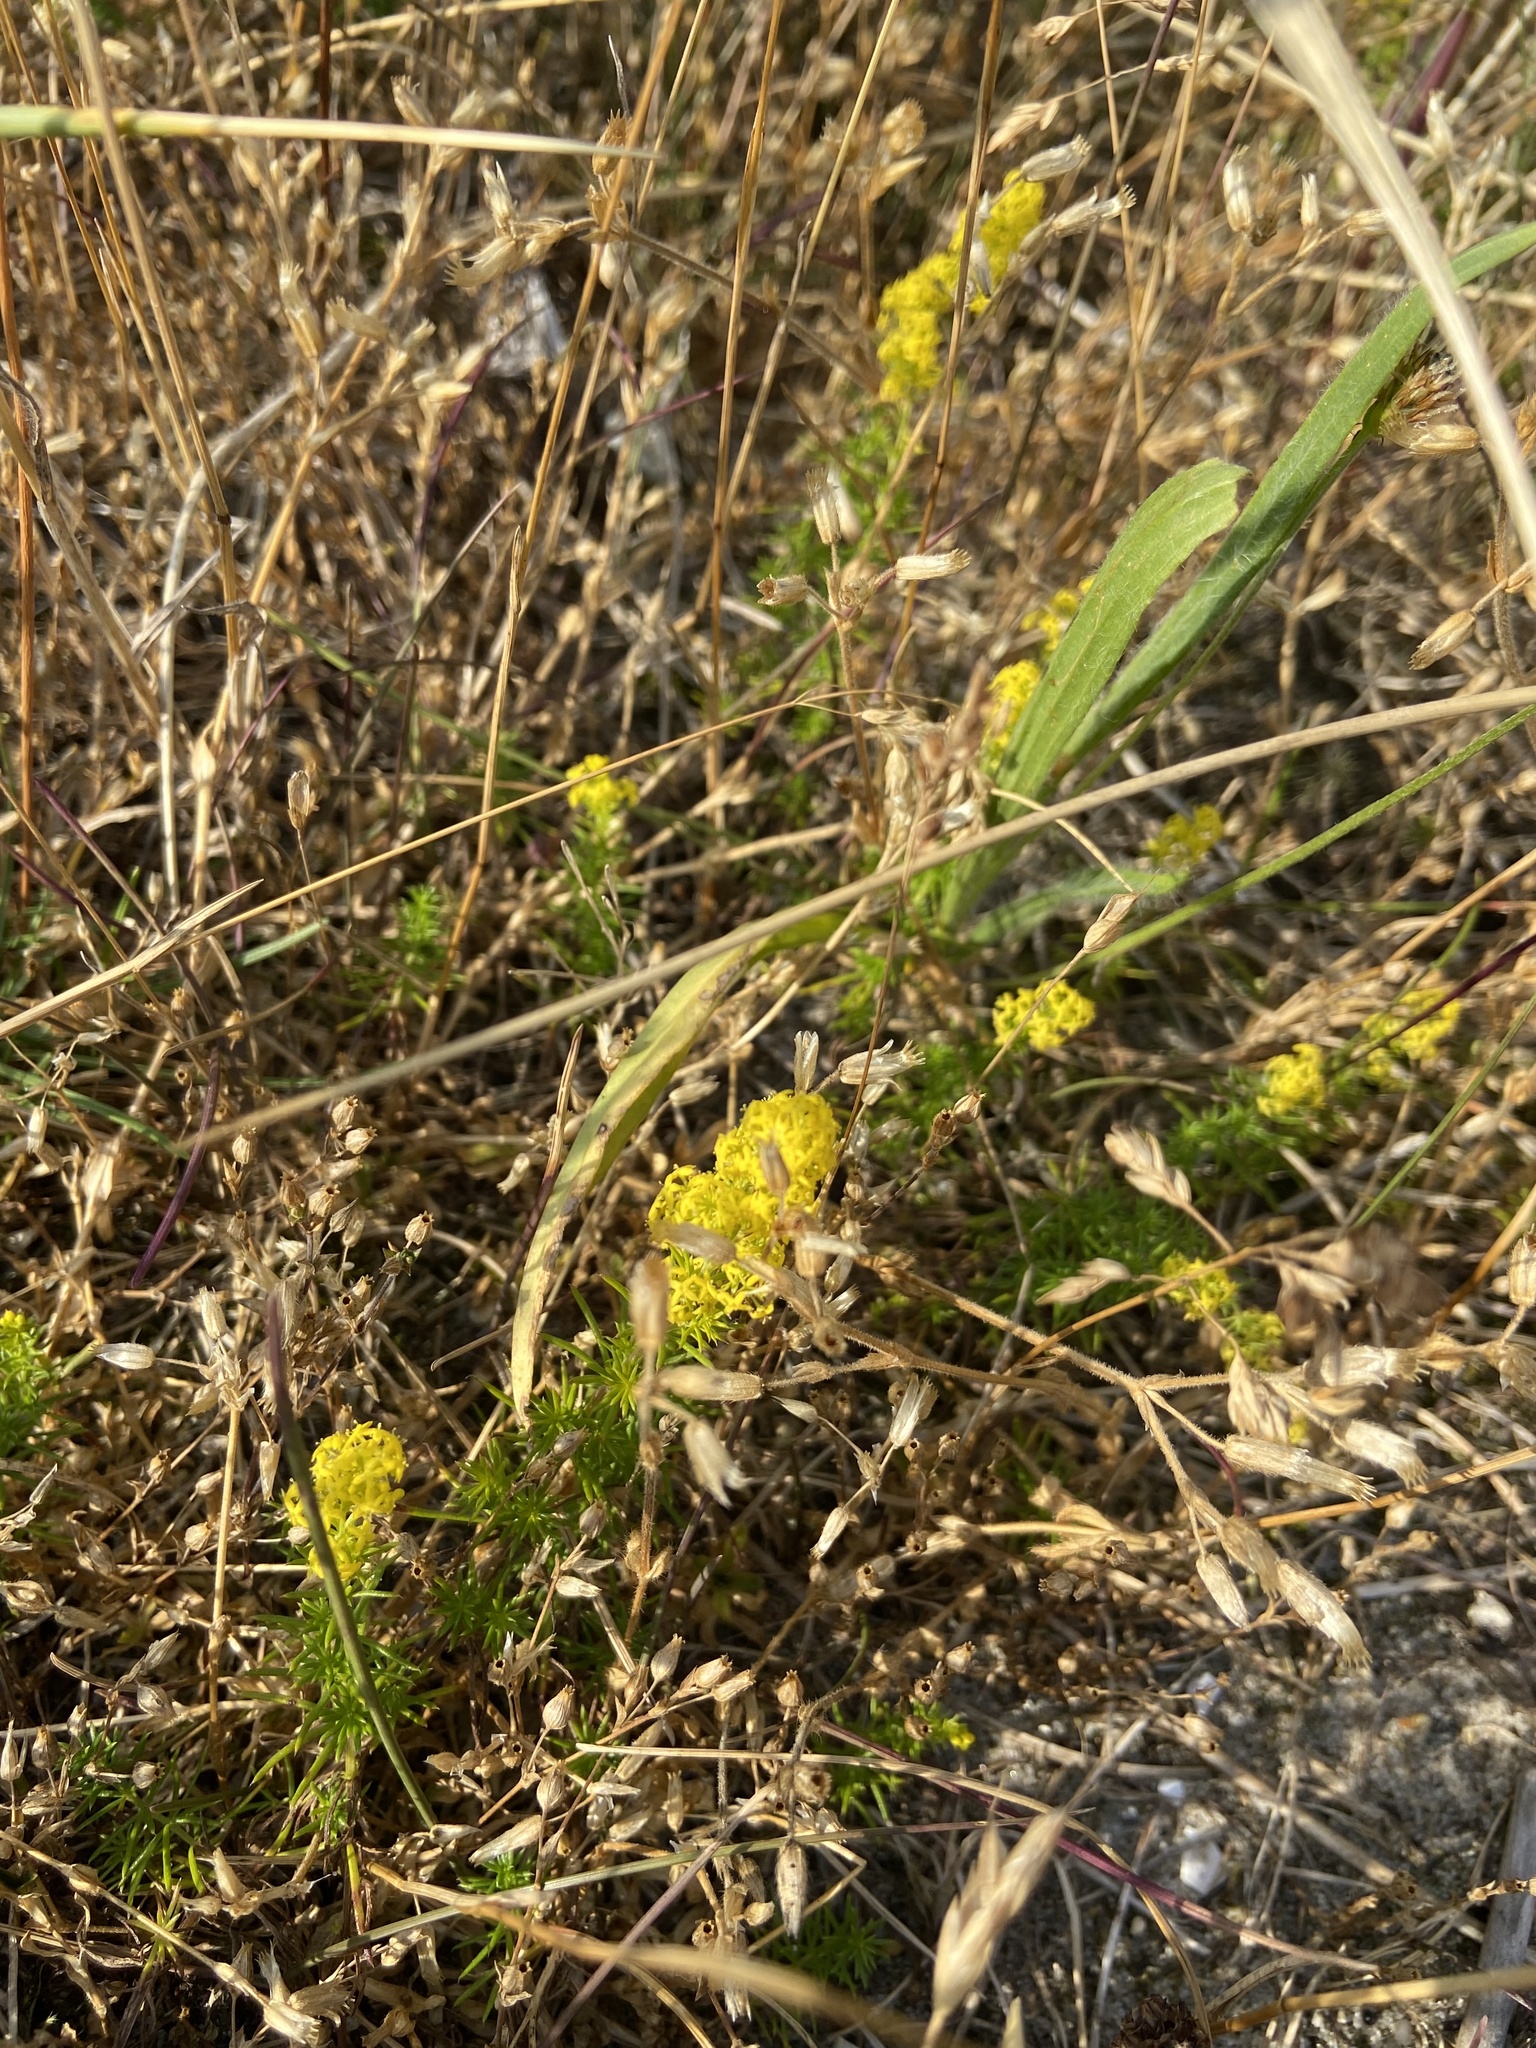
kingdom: Plantae
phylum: Tracheophyta
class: Magnoliopsida
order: Gentianales
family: Rubiaceae
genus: Galium
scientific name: Galium verum
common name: Lady's bedstraw
